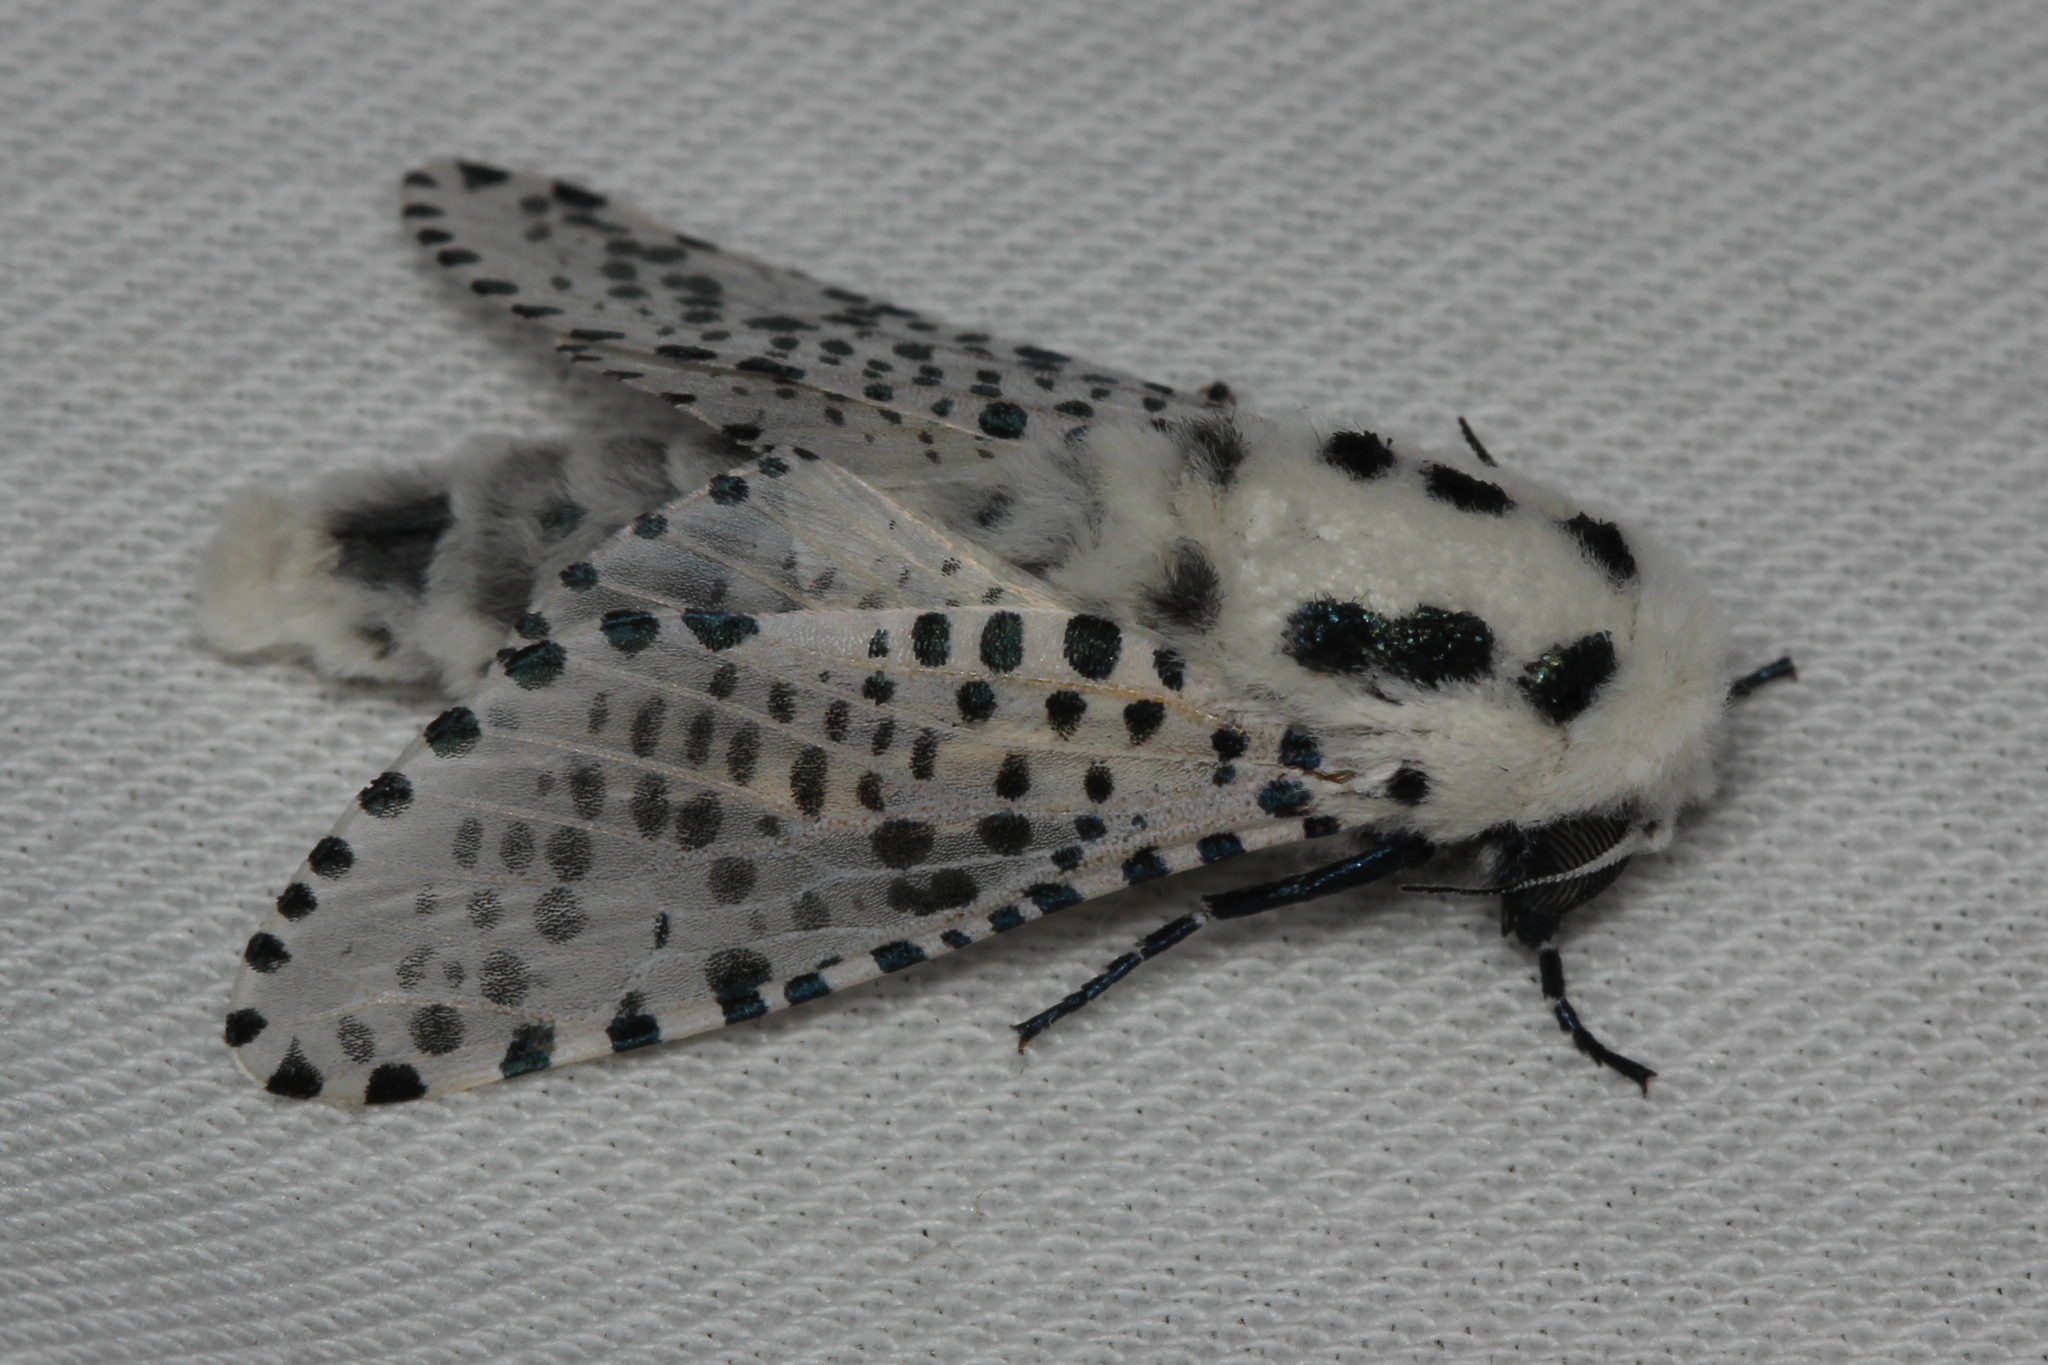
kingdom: Animalia
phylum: Arthropoda
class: Insecta
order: Lepidoptera
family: Cossidae
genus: Zeuzera
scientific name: Zeuzera pyrina
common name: Leopard moth
